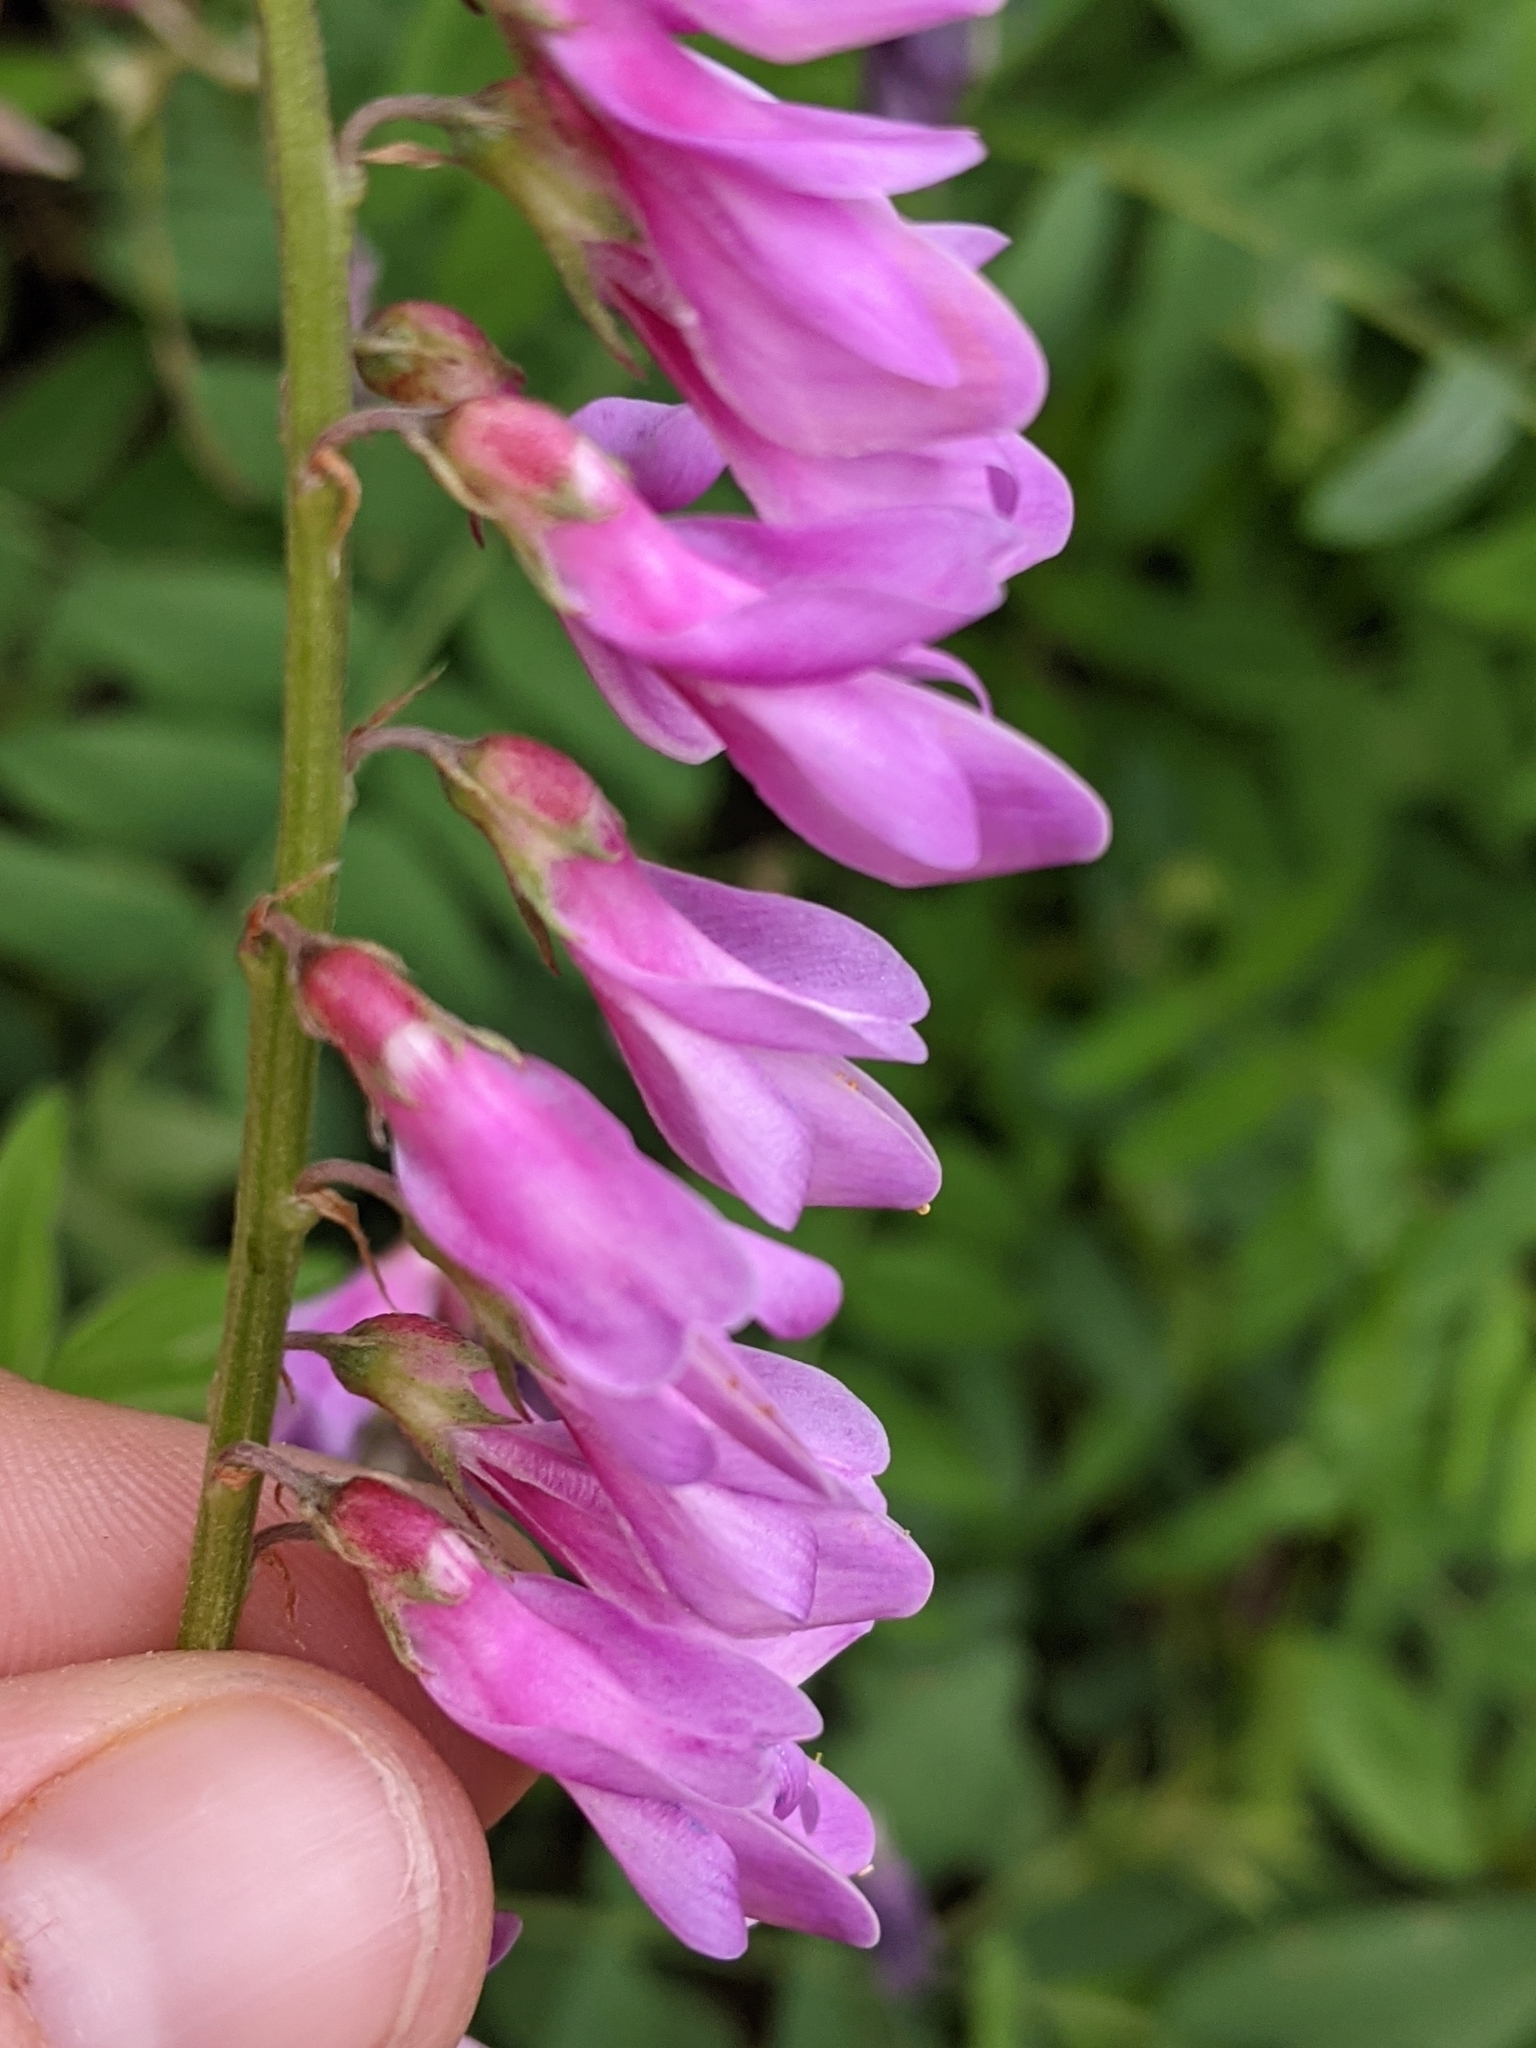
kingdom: Plantae
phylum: Tracheophyta
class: Magnoliopsida
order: Fabales
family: Fabaceae
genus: Hedysarum
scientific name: Hedysarum occidentale
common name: Western hedysarum
